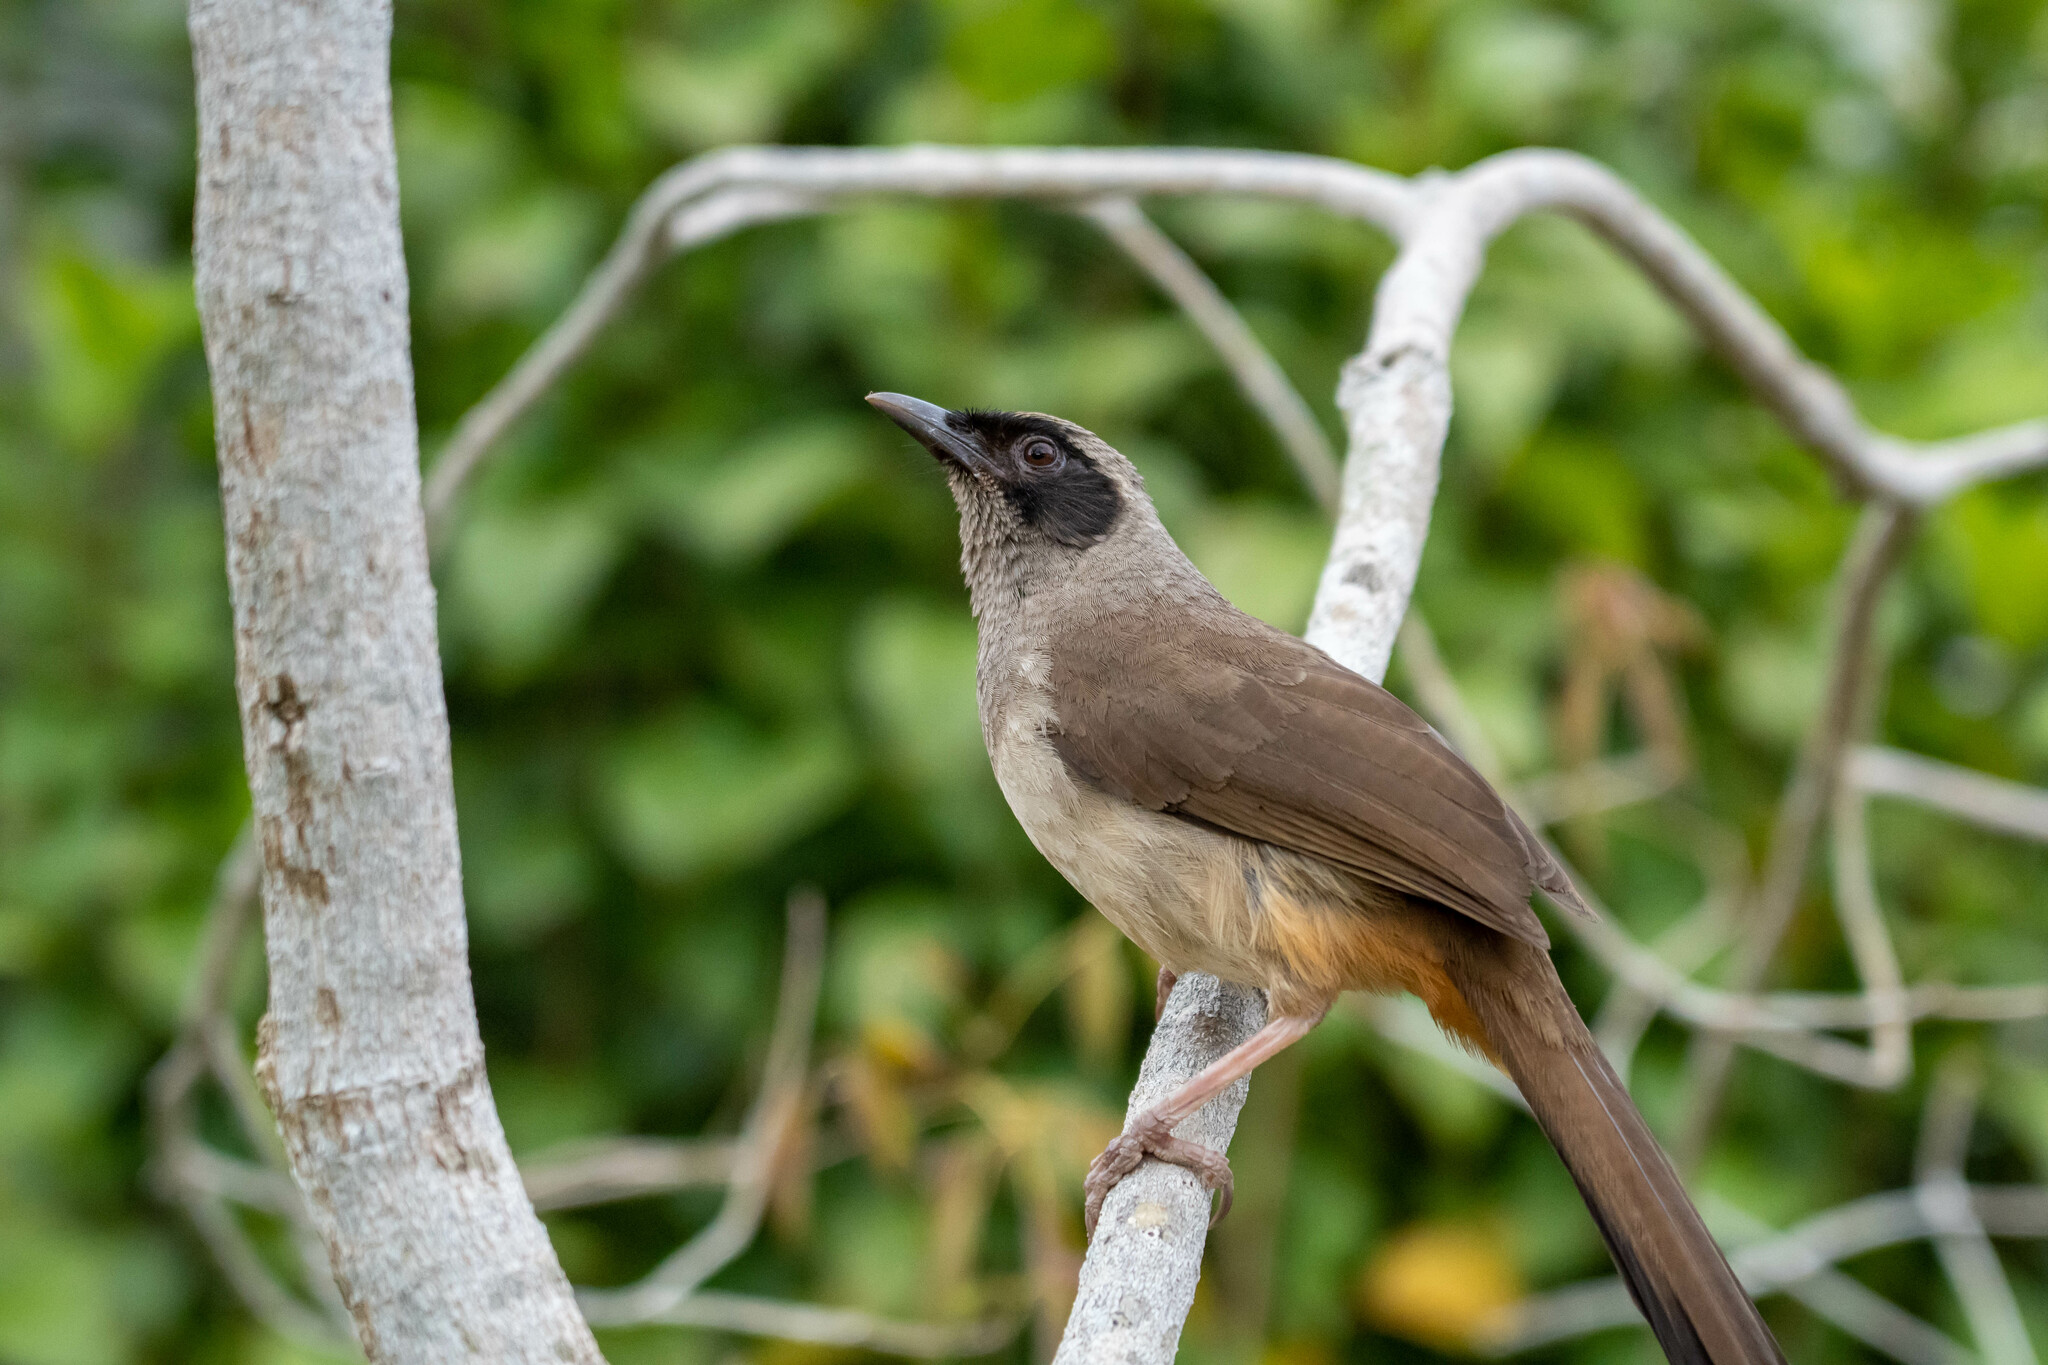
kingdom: Animalia
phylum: Chordata
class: Aves
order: Passeriformes
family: Leiothrichidae
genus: Garrulax
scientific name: Garrulax perspicillatus
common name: Masked laughingthrush
